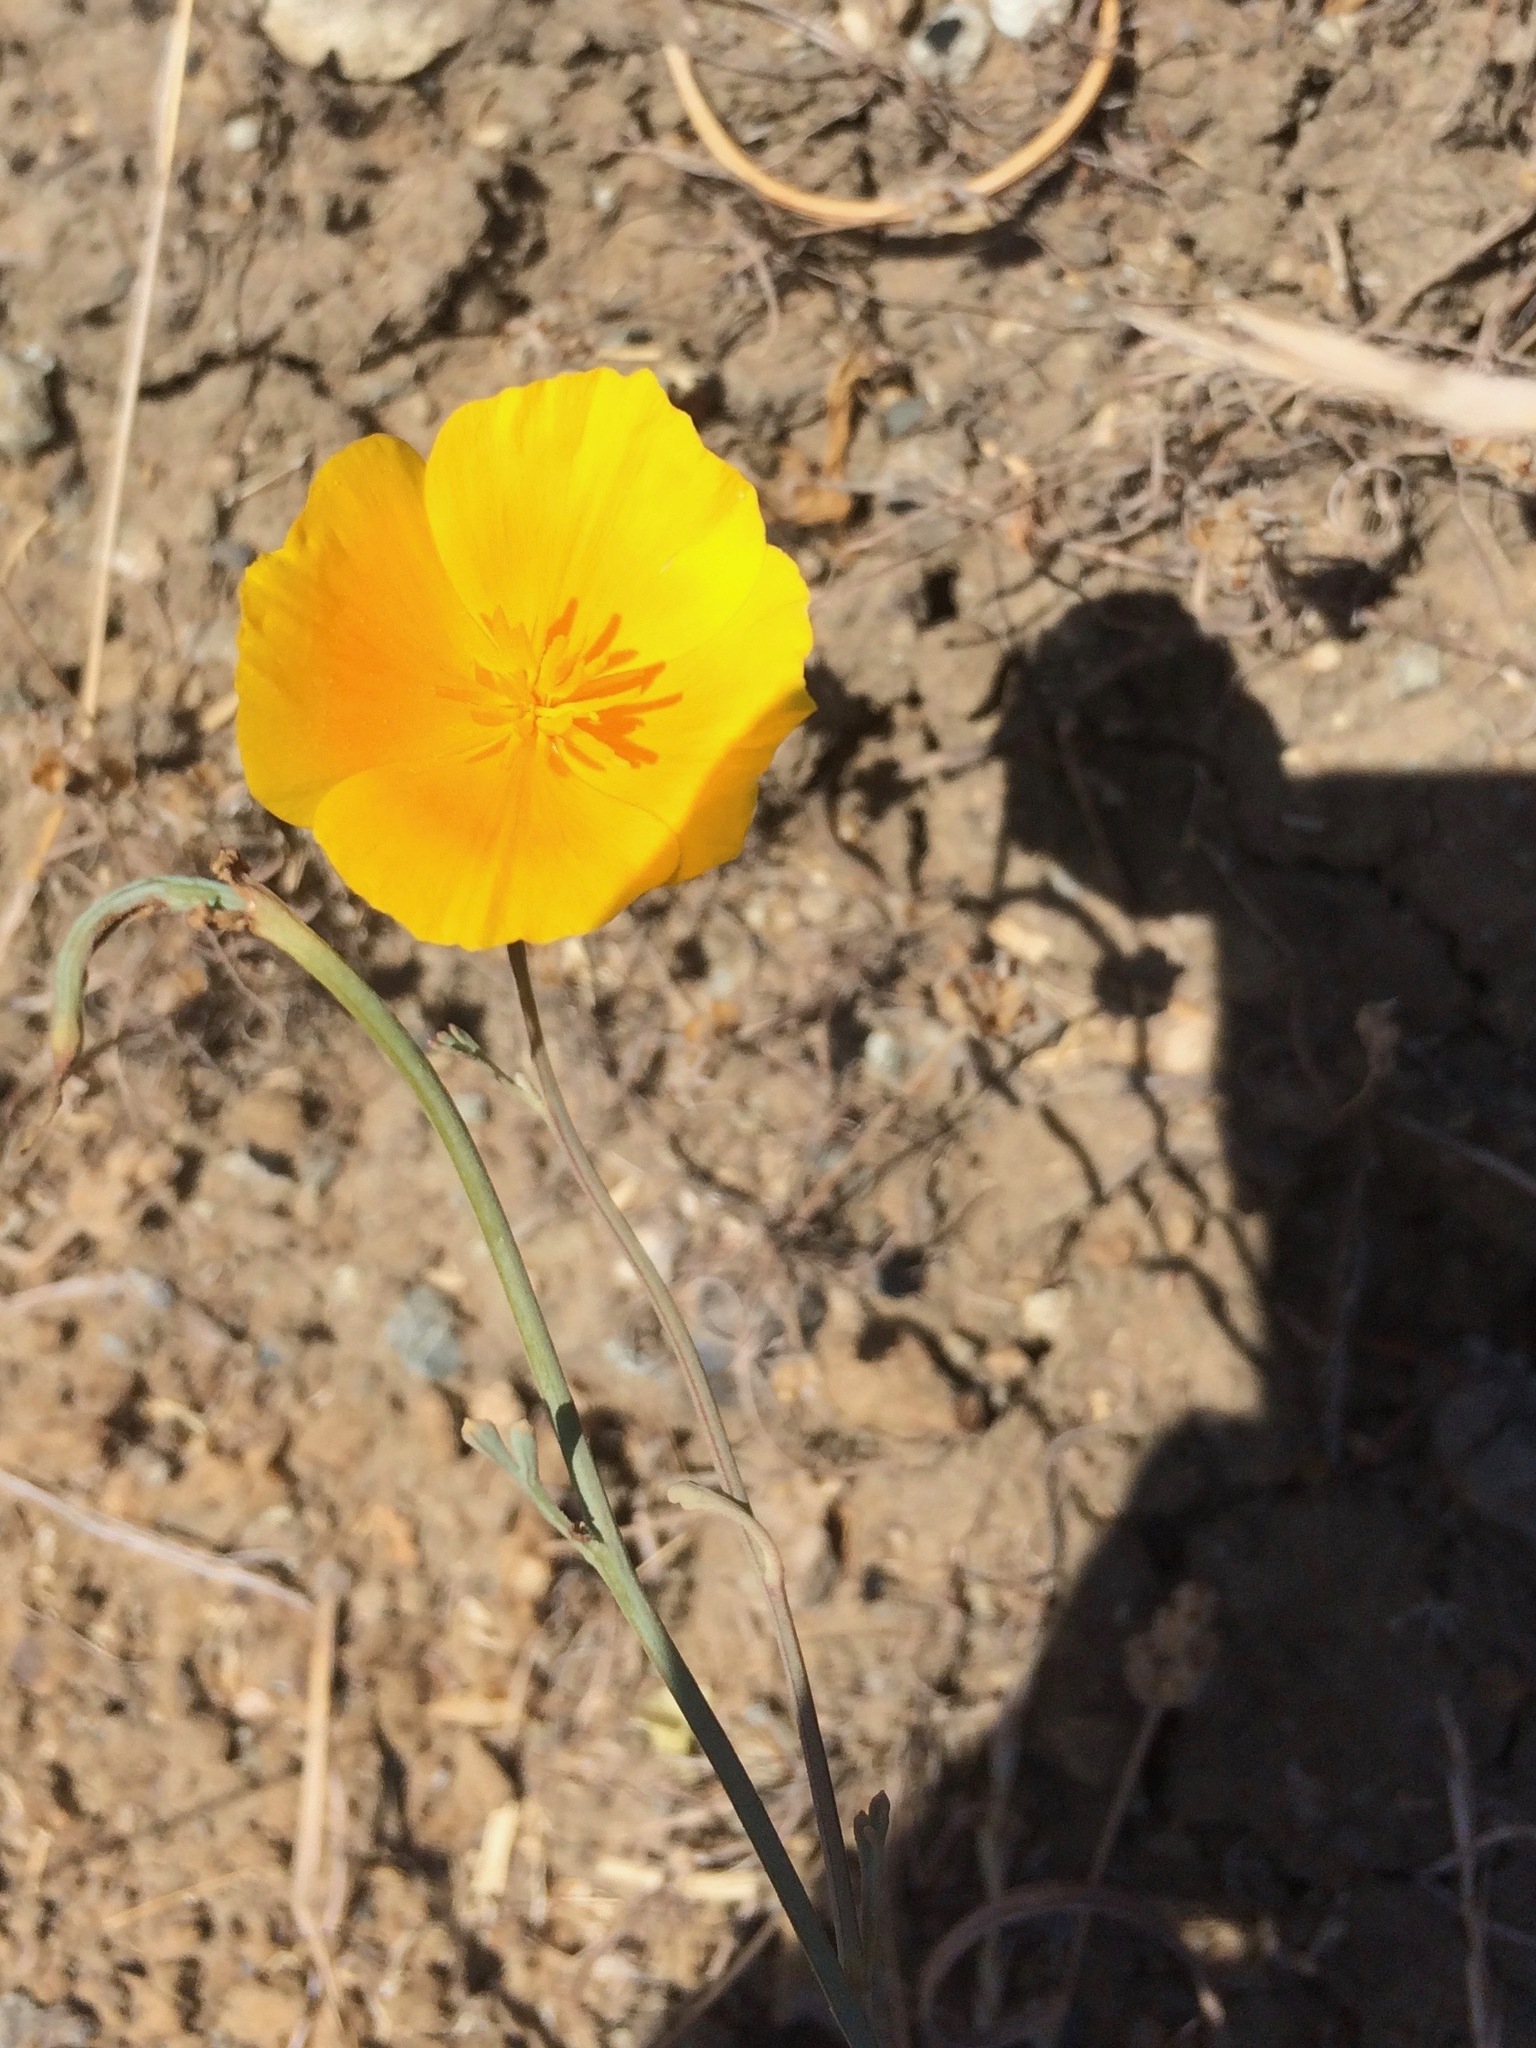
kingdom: Plantae
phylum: Tracheophyta
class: Magnoliopsida
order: Ranunculales
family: Papaveraceae
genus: Eschscholzia
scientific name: Eschscholzia californica
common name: California poppy
